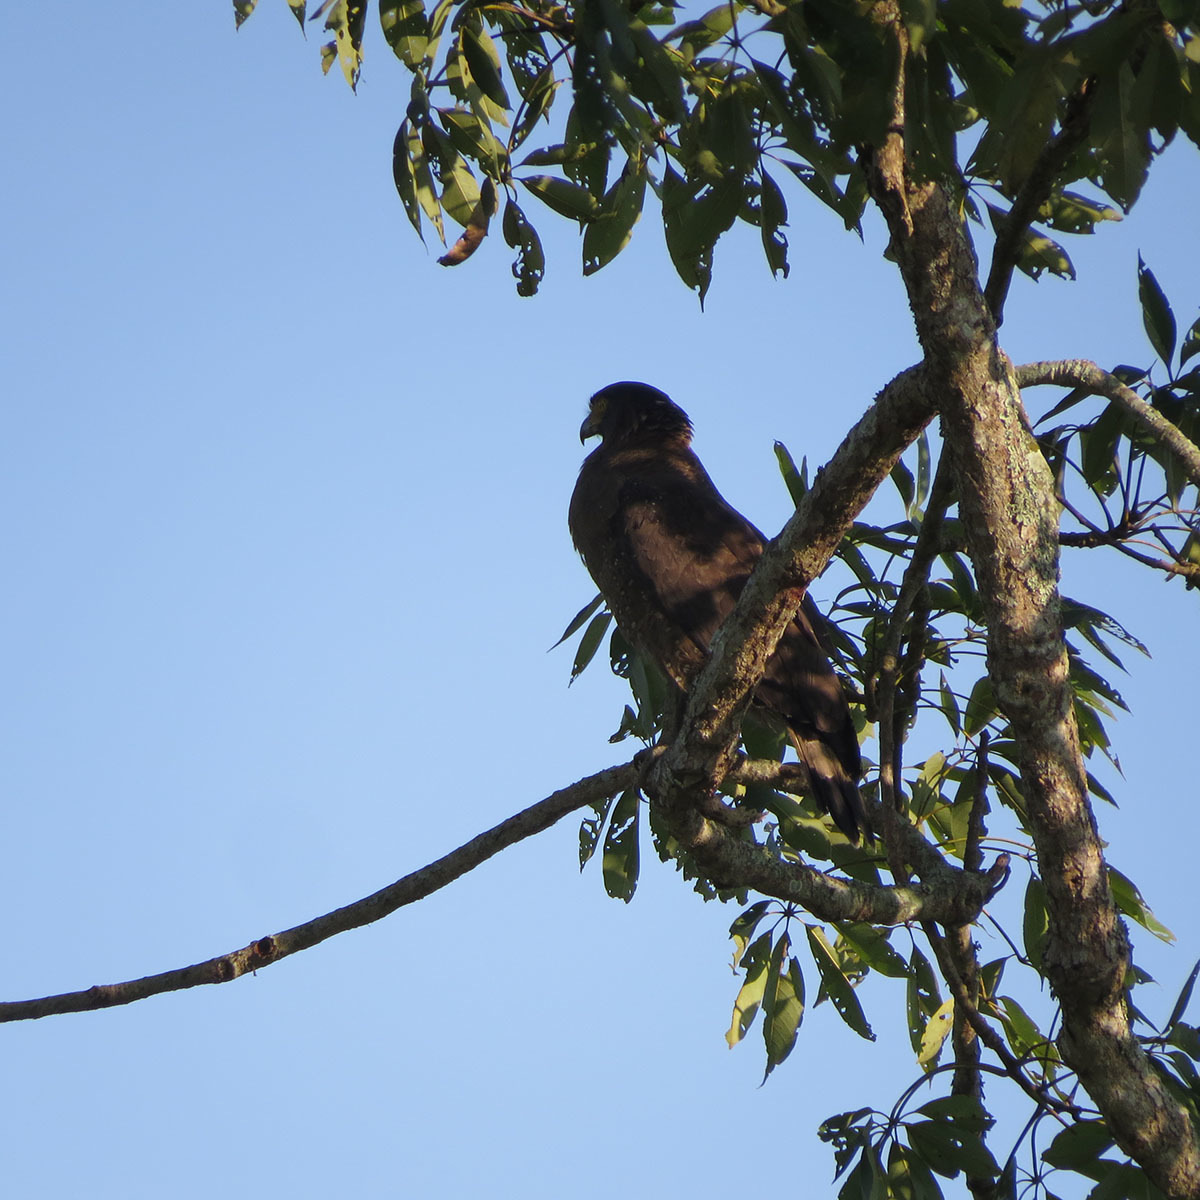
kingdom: Animalia
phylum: Chordata
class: Aves
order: Accipitriformes
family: Accipitridae
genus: Spilornis
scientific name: Spilornis cheela
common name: Crested serpent eagle
